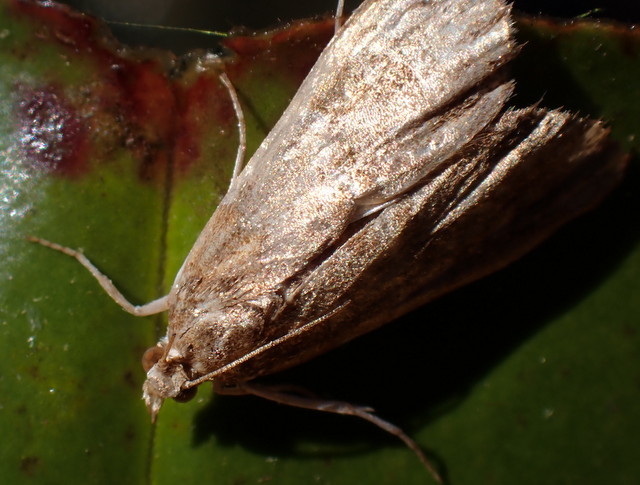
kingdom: Animalia
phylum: Arthropoda
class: Insecta
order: Lepidoptera
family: Crambidae
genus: Elophila
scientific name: Elophila gyralis
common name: Waterlily borer moth
